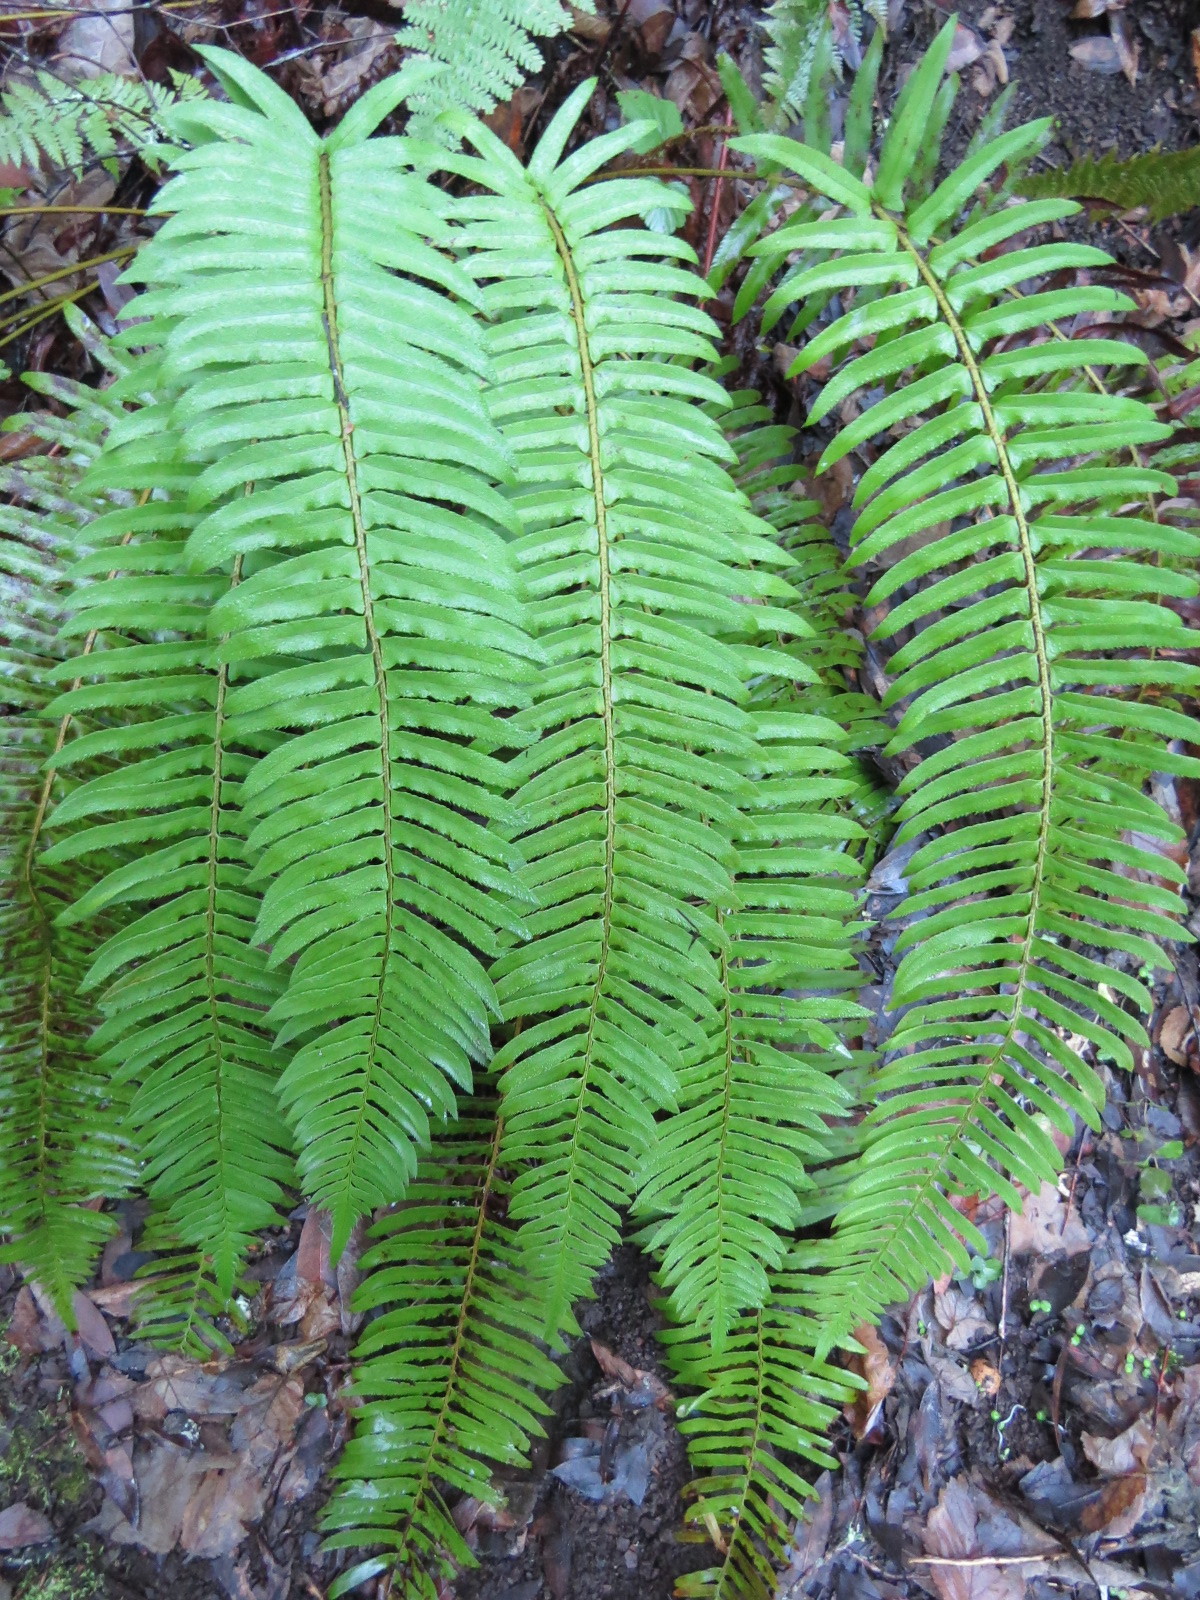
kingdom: Plantae
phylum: Tracheophyta
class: Polypodiopsida
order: Polypodiales
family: Dryopteridaceae
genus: Polystichum
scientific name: Polystichum munitum
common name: Western sword-fern
